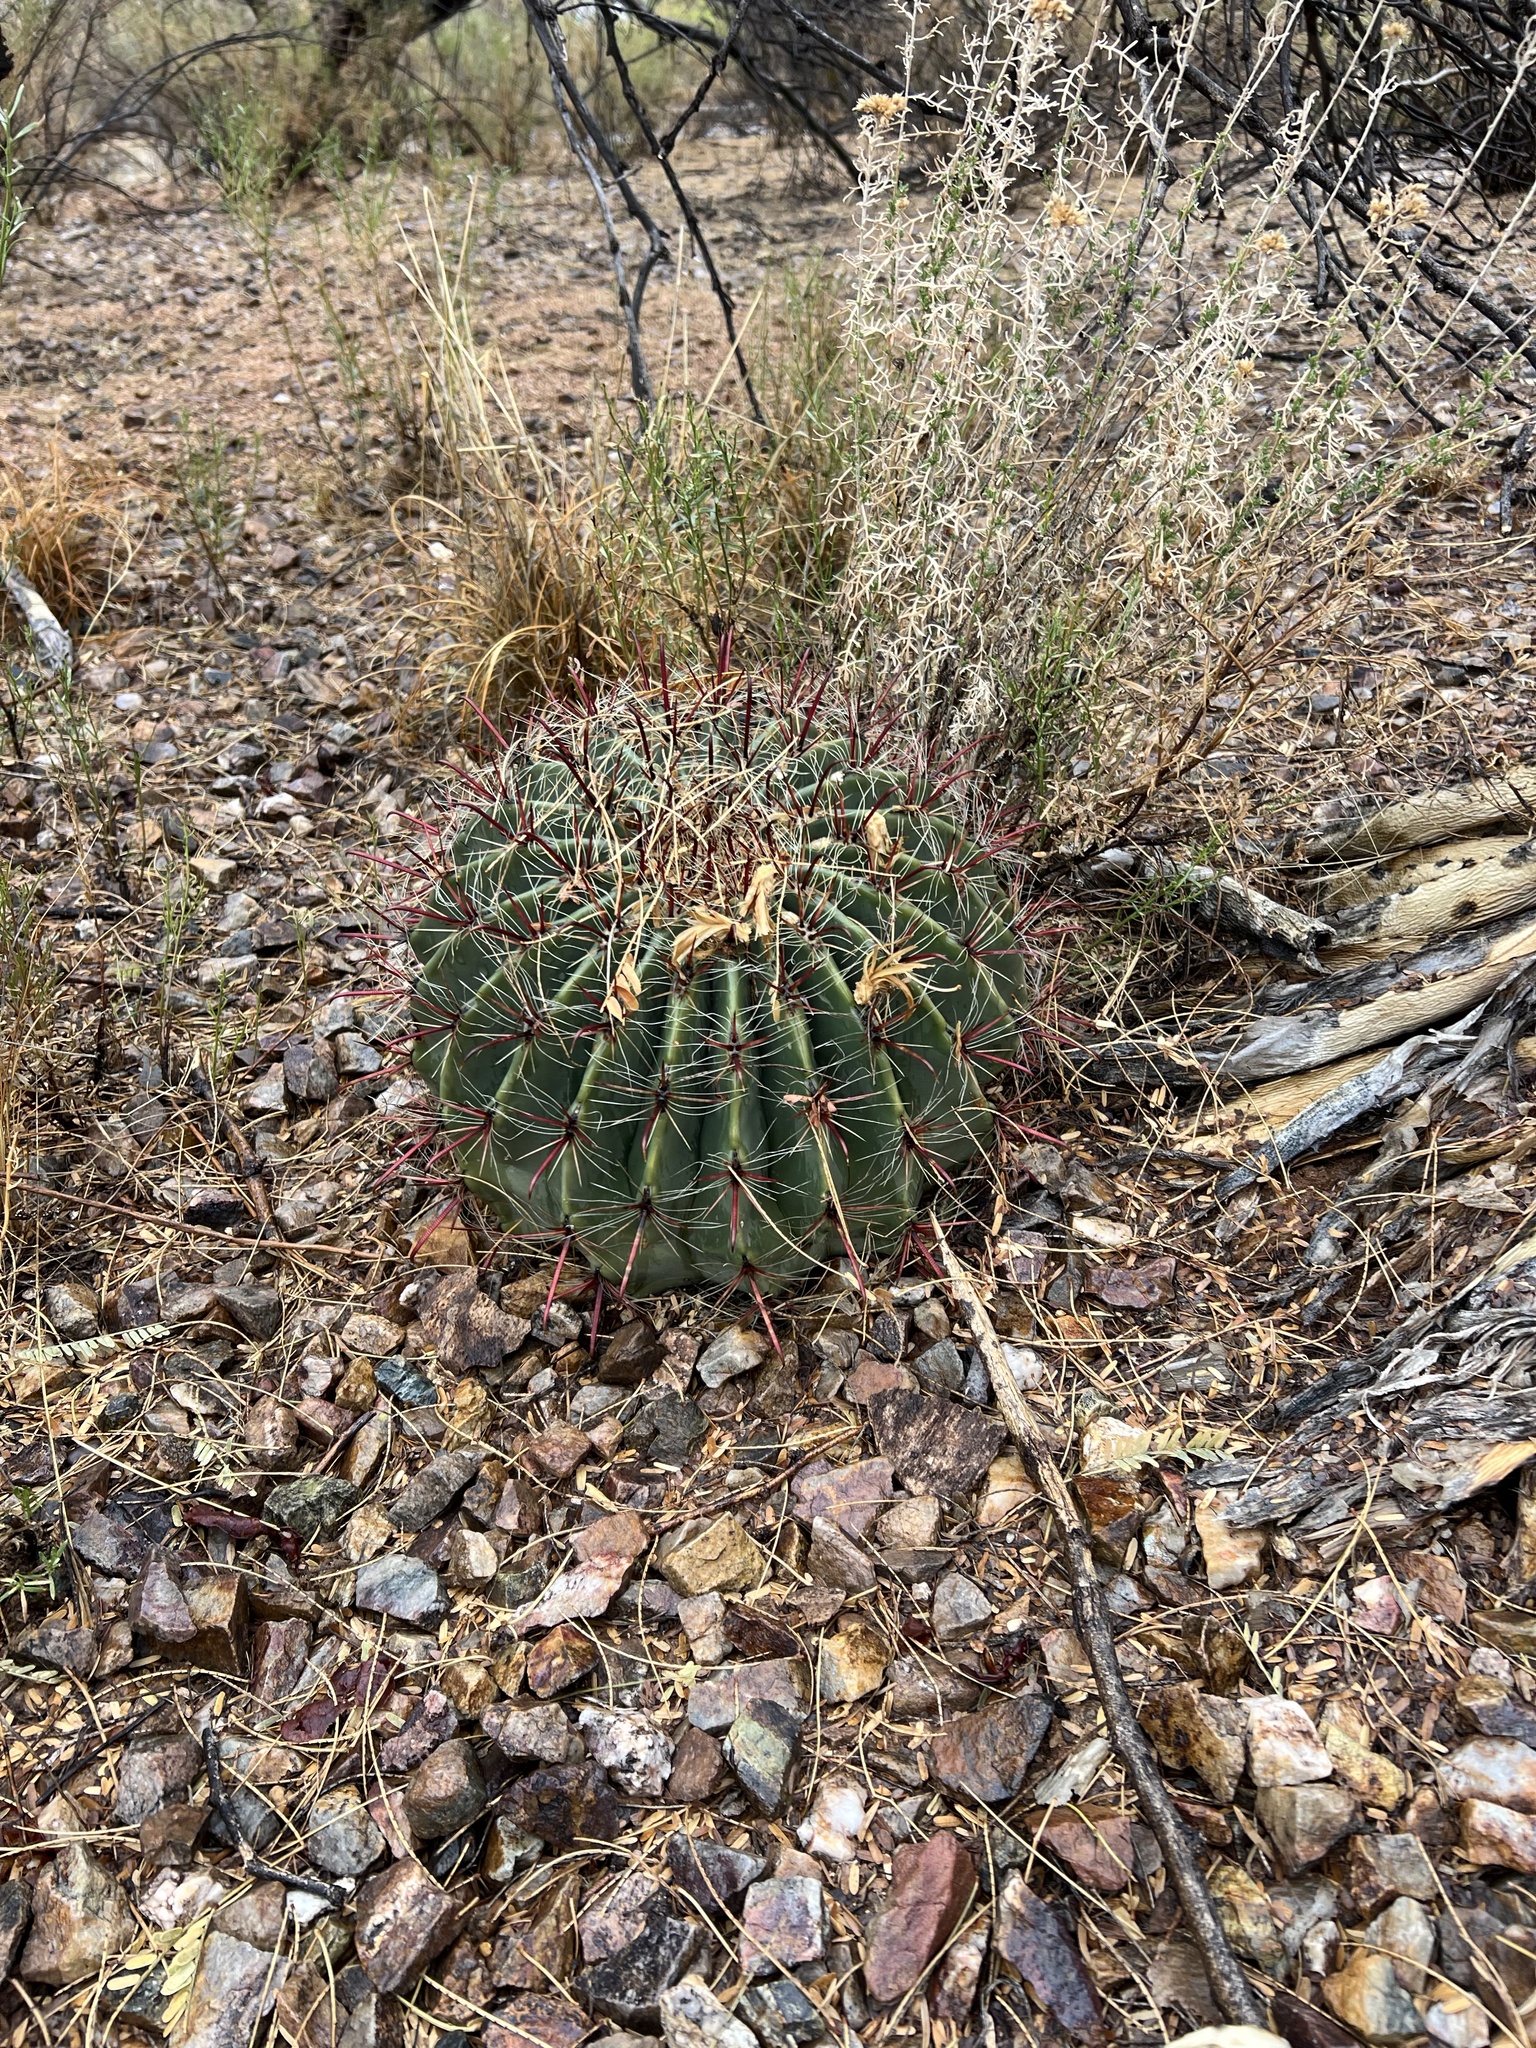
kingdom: Plantae
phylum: Tracheophyta
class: Magnoliopsida
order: Caryophyllales
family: Cactaceae
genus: Ferocactus
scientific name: Ferocactus wislizeni
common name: Candy barrel cactus
